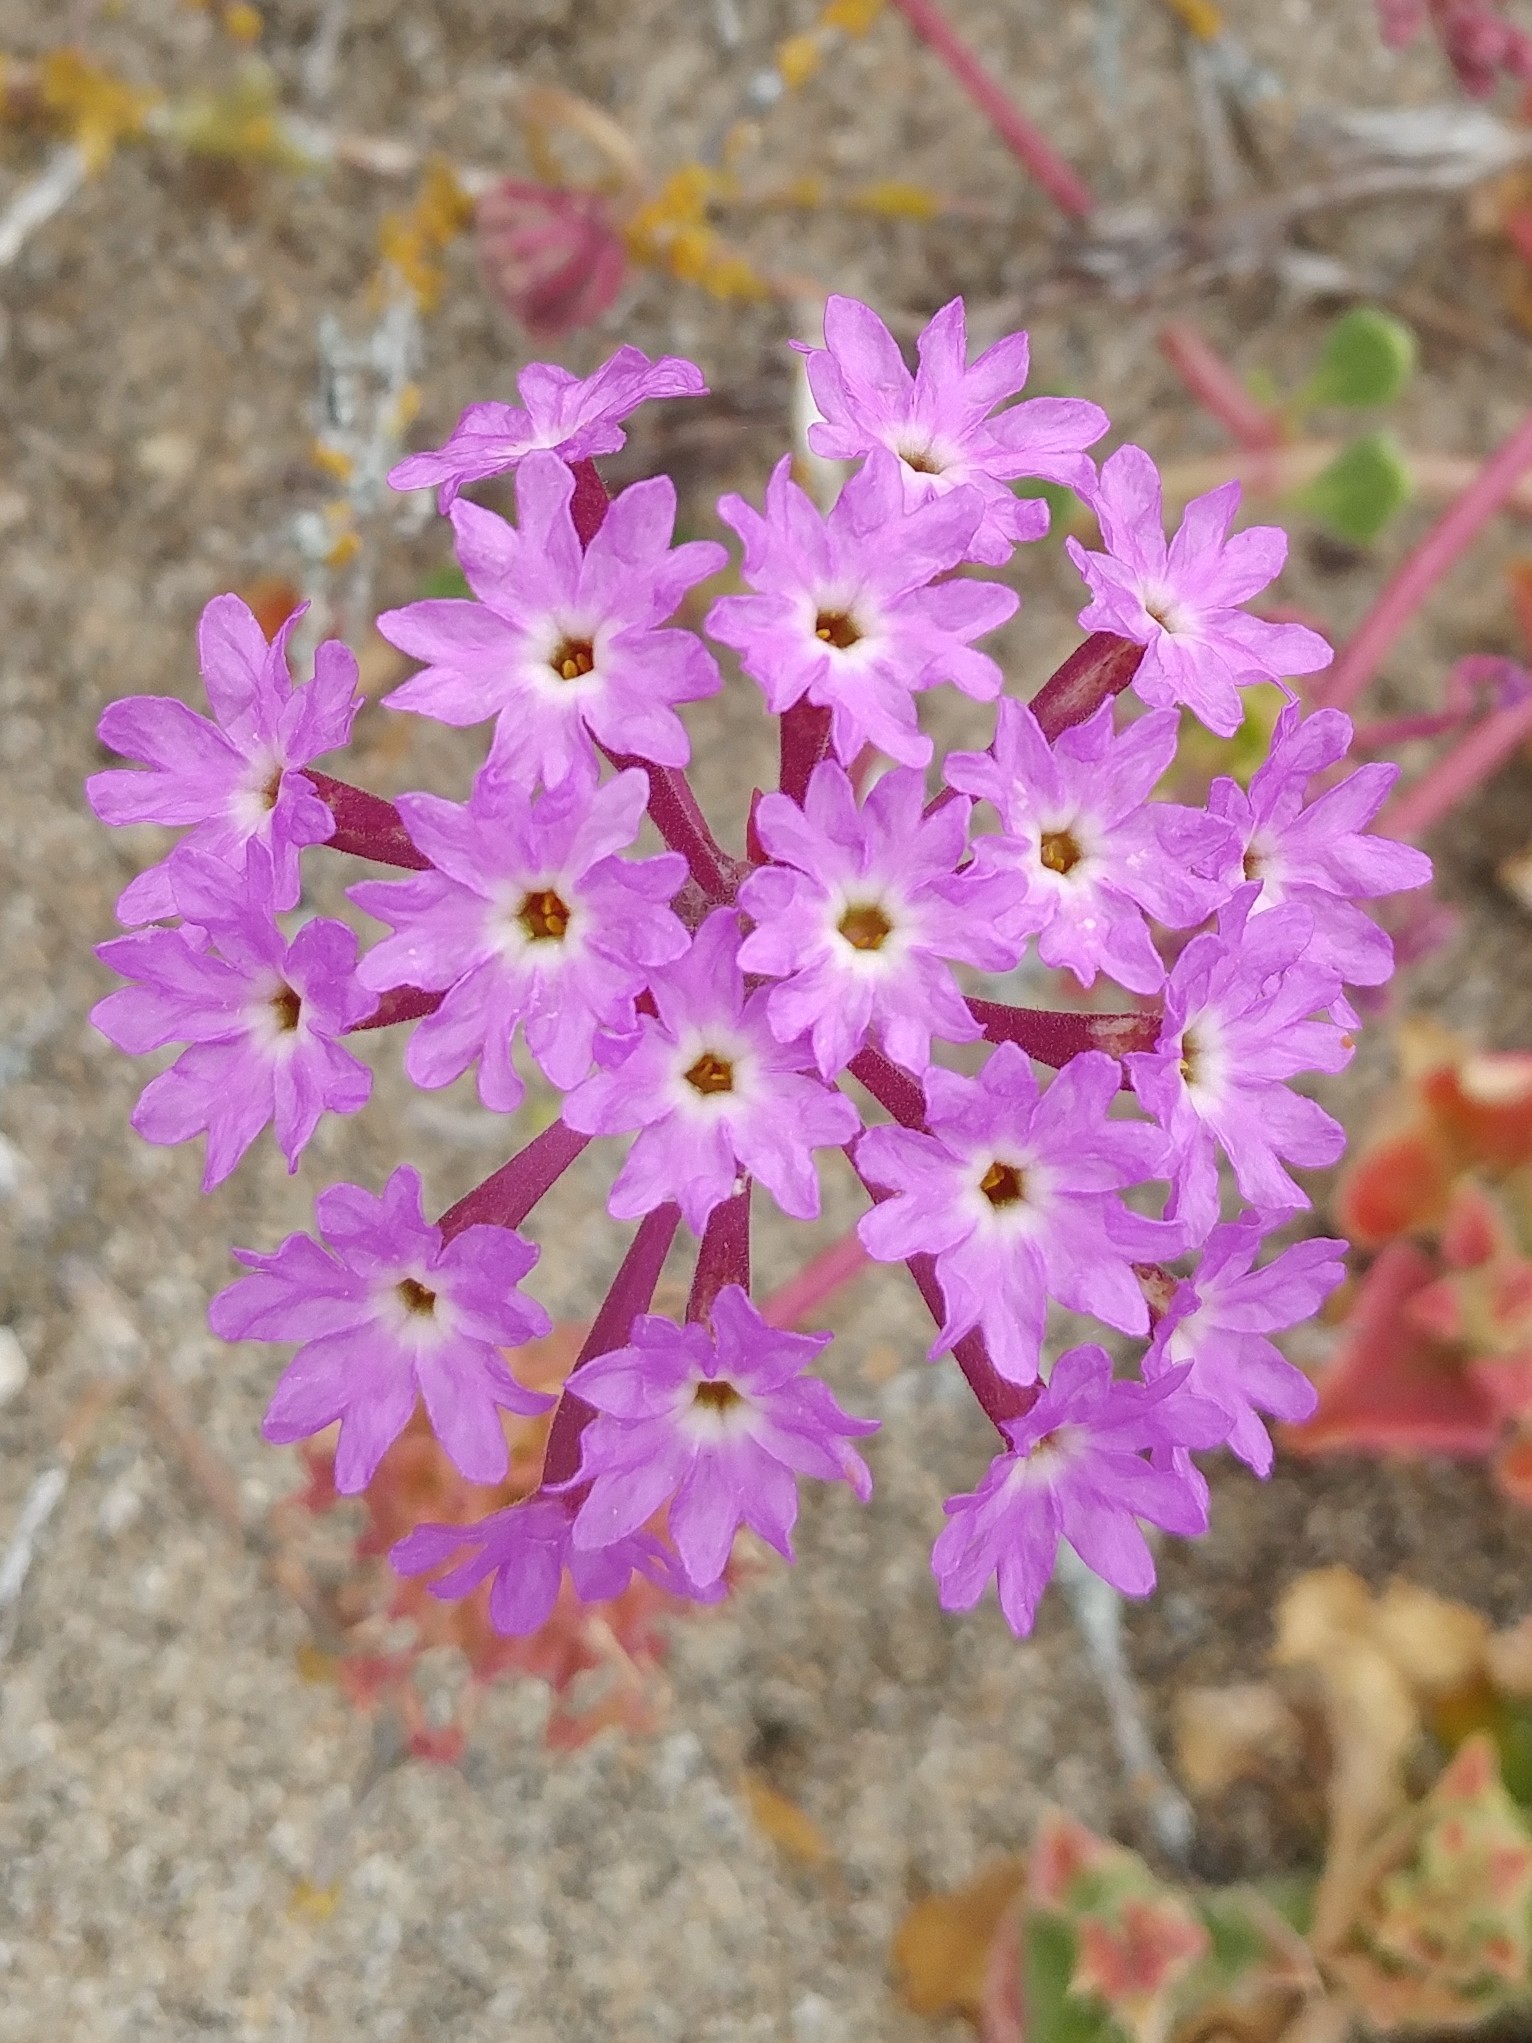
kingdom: Plantae
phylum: Tracheophyta
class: Magnoliopsida
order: Caryophyllales
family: Nyctaginaceae
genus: Abronia
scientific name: Abronia umbellata
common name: Sand-verbena
